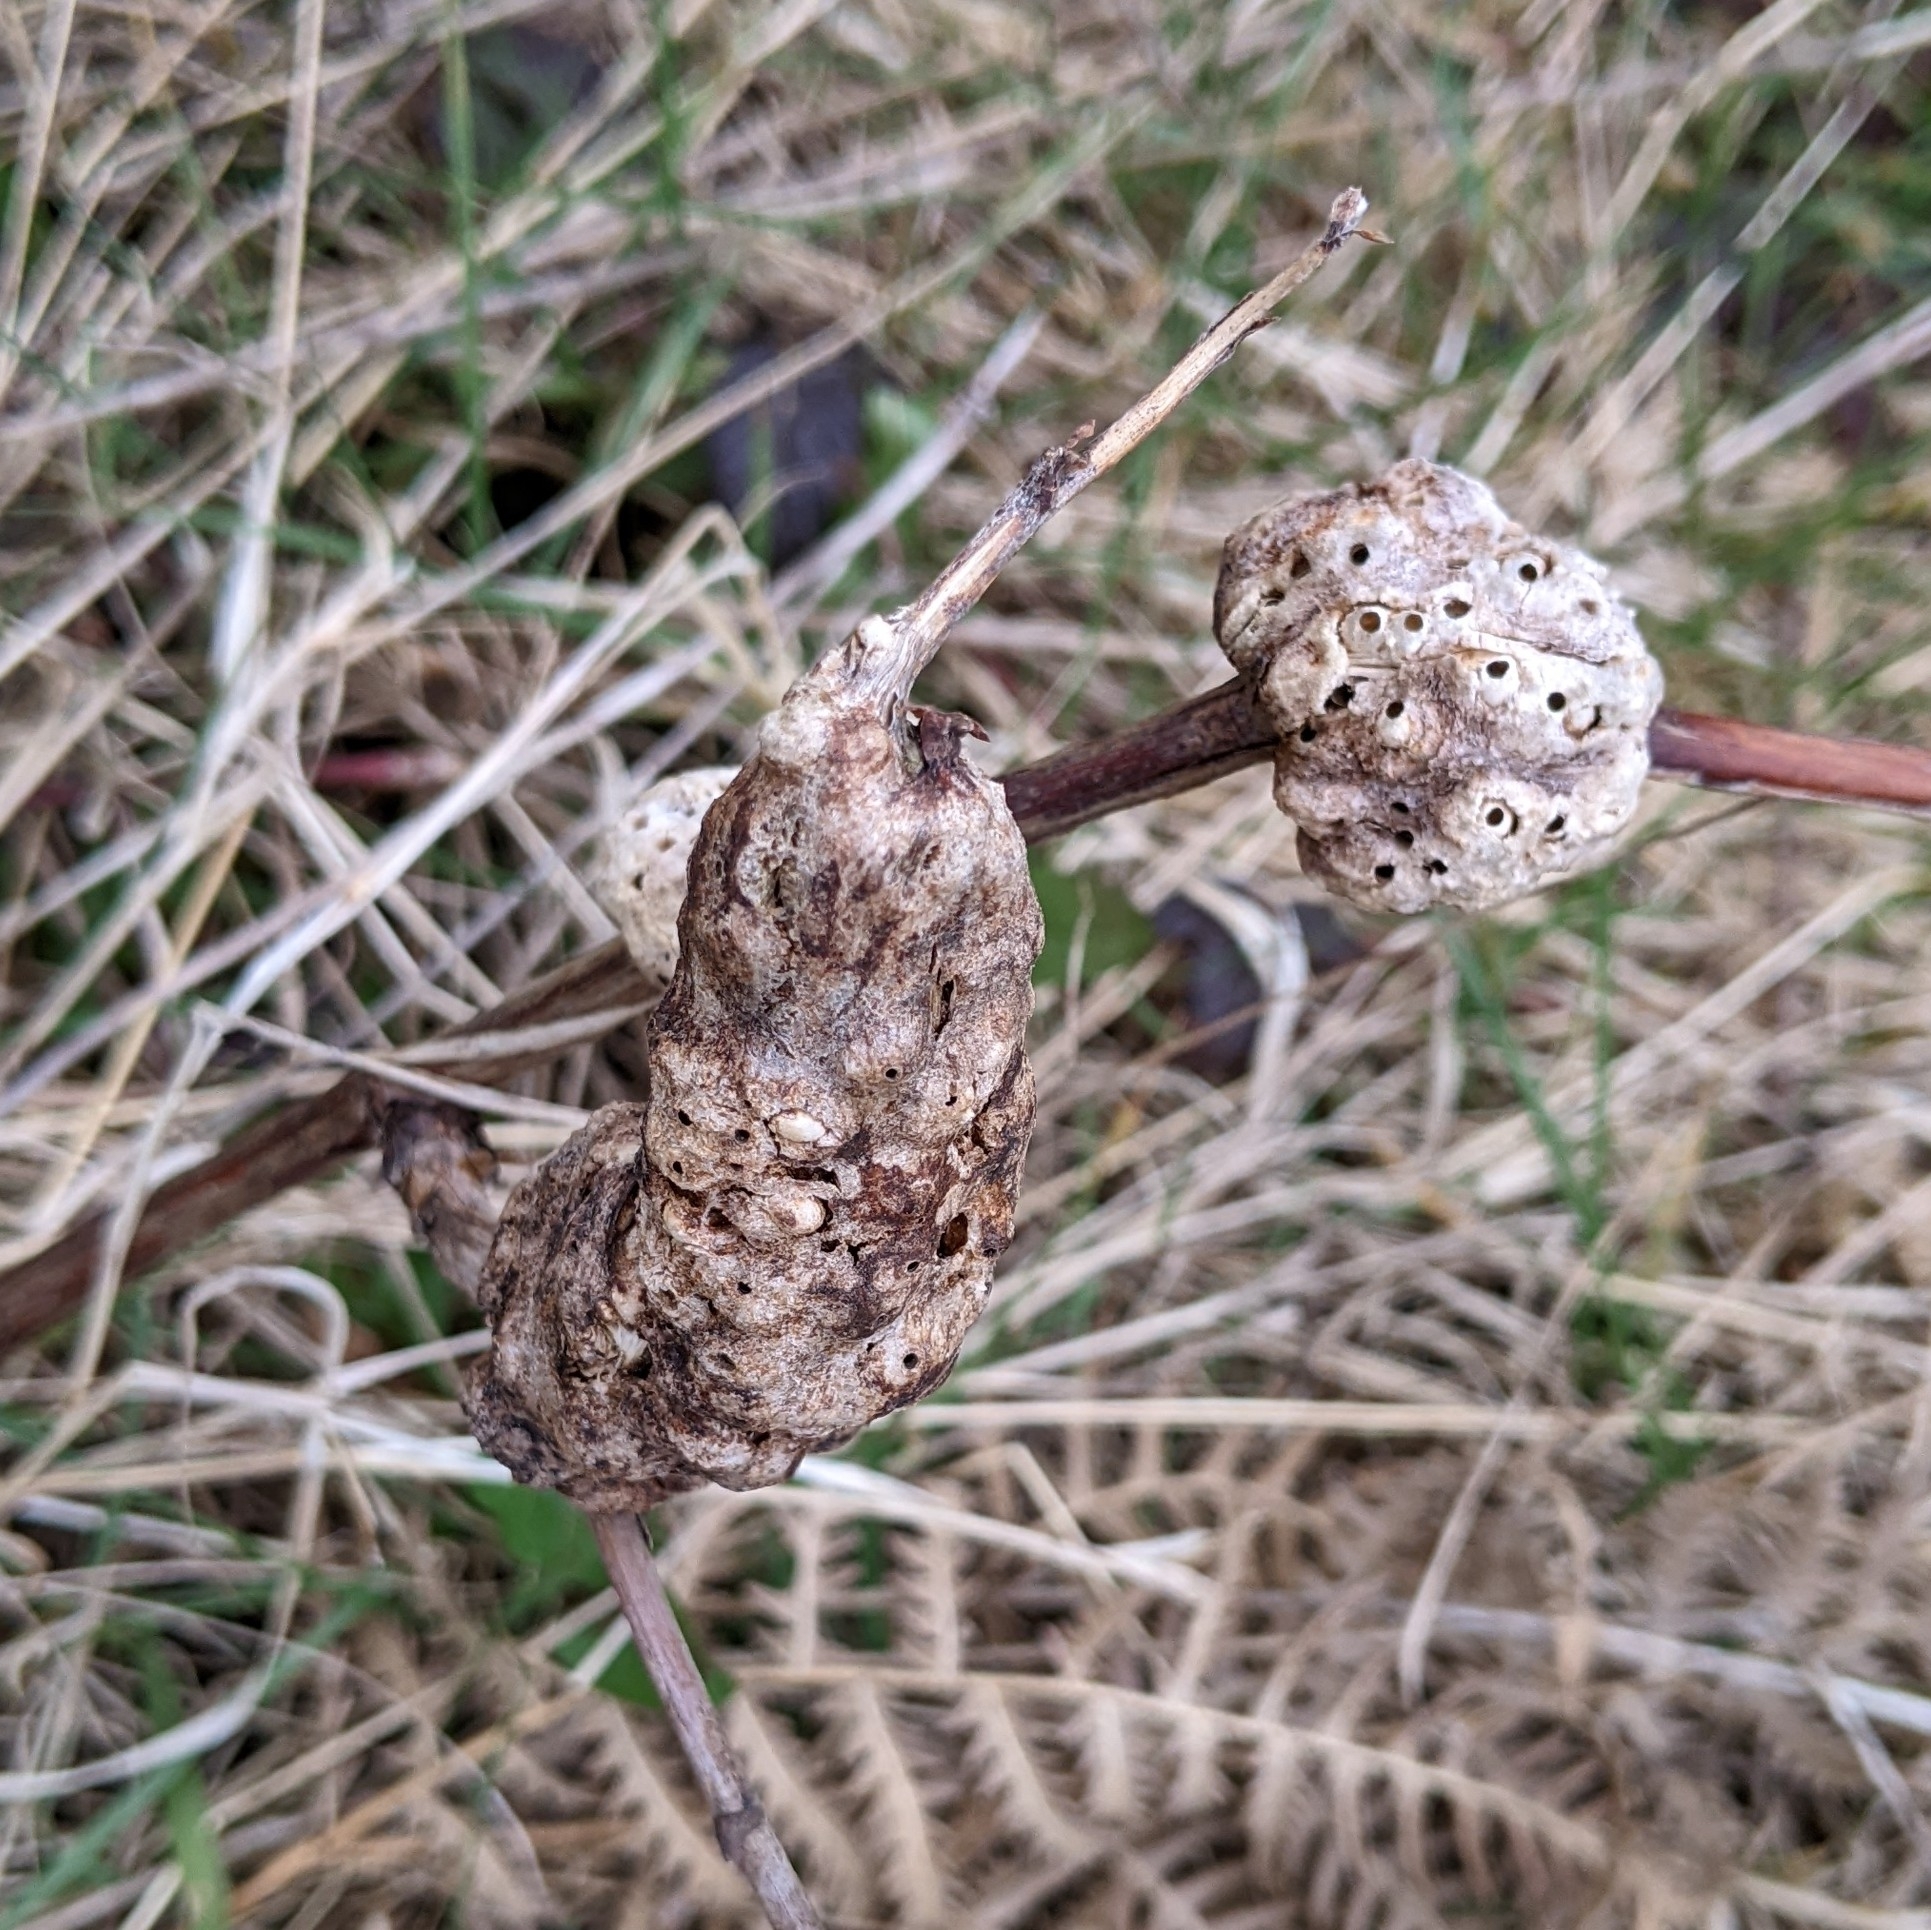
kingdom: Animalia
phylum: Arthropoda
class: Insecta
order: Hymenoptera
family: Cynipidae
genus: Diastrophus
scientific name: Diastrophus
